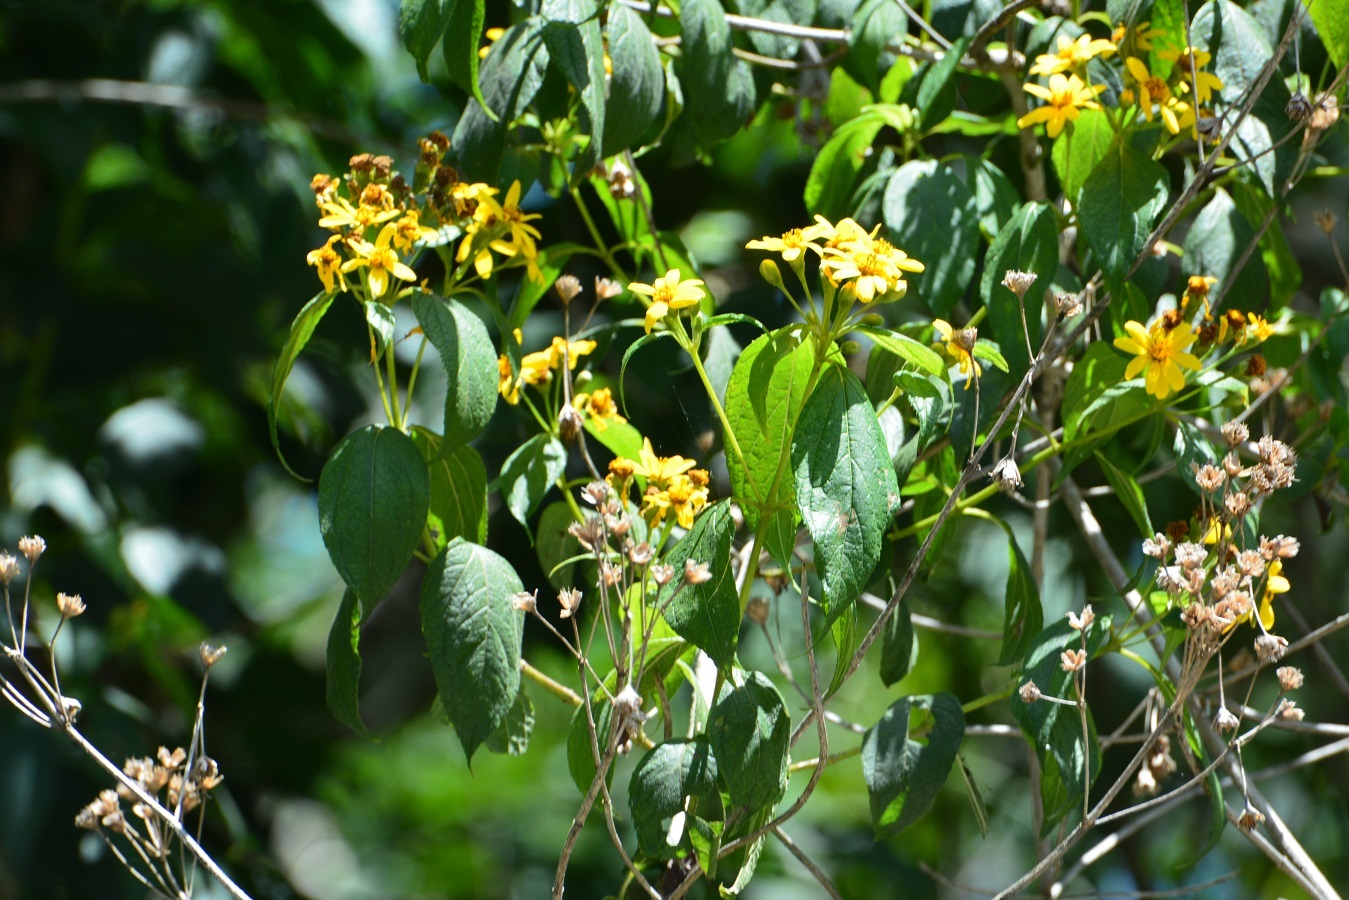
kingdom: Plantae
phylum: Tracheophyta
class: Magnoliopsida
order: Asterales
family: Asteraceae
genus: Perymenium
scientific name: Perymenium grande
